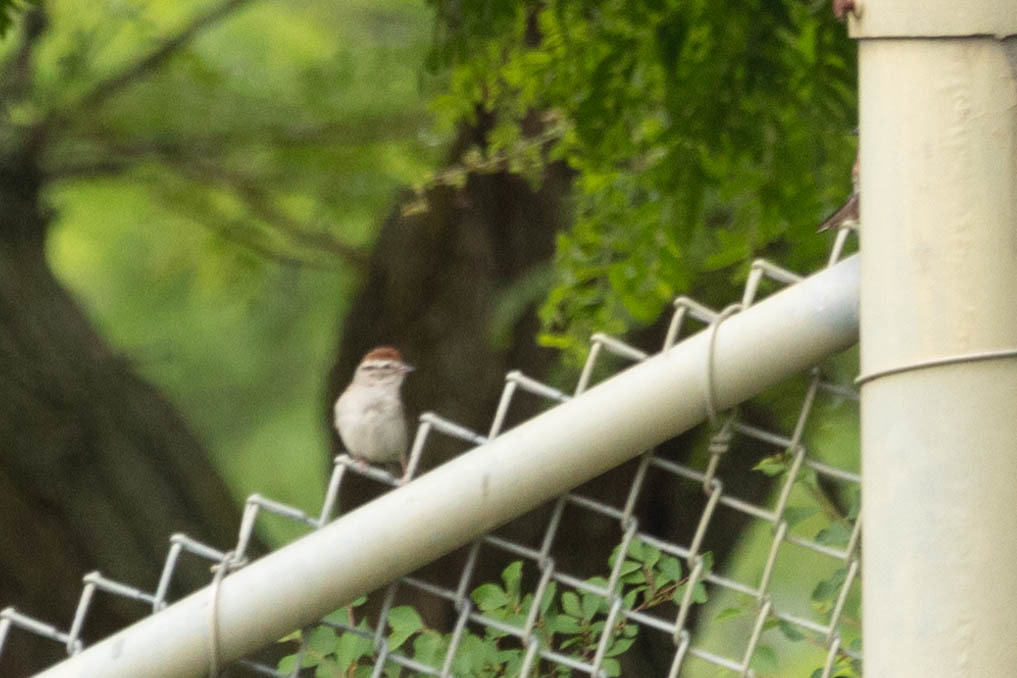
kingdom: Animalia
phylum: Chordata
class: Aves
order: Passeriformes
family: Passerellidae
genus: Spizella
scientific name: Spizella passerina
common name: Chipping sparrow
